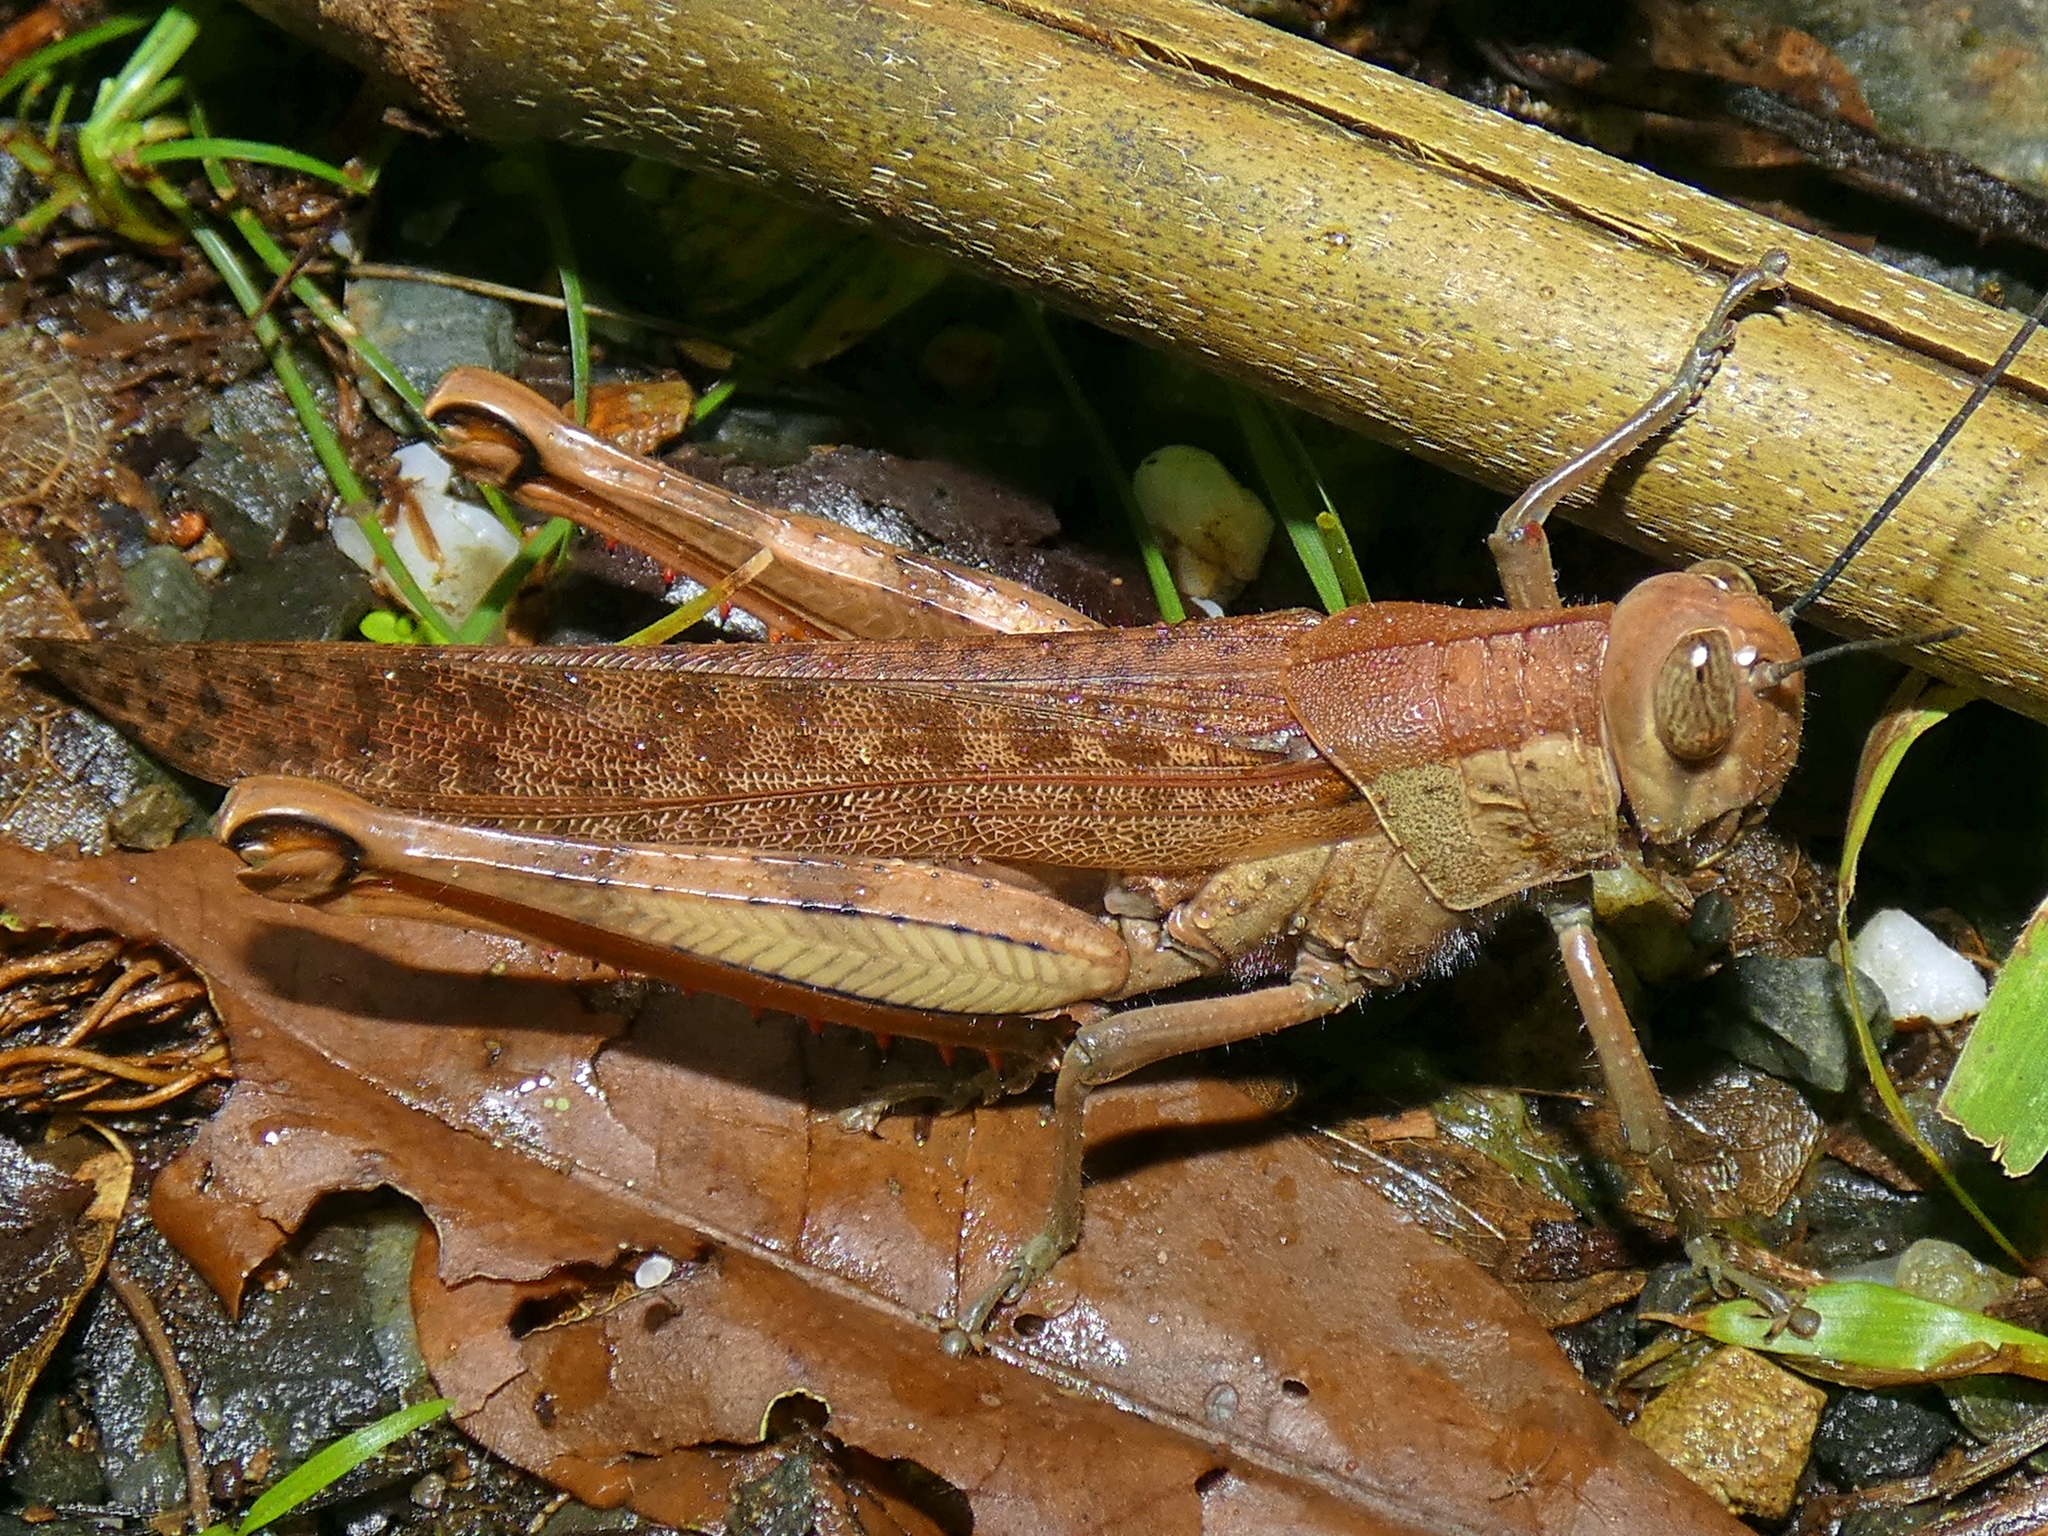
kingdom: Animalia
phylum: Arthropoda
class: Insecta
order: Orthoptera
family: Acrididae
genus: Valanga
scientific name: Valanga irregularis
